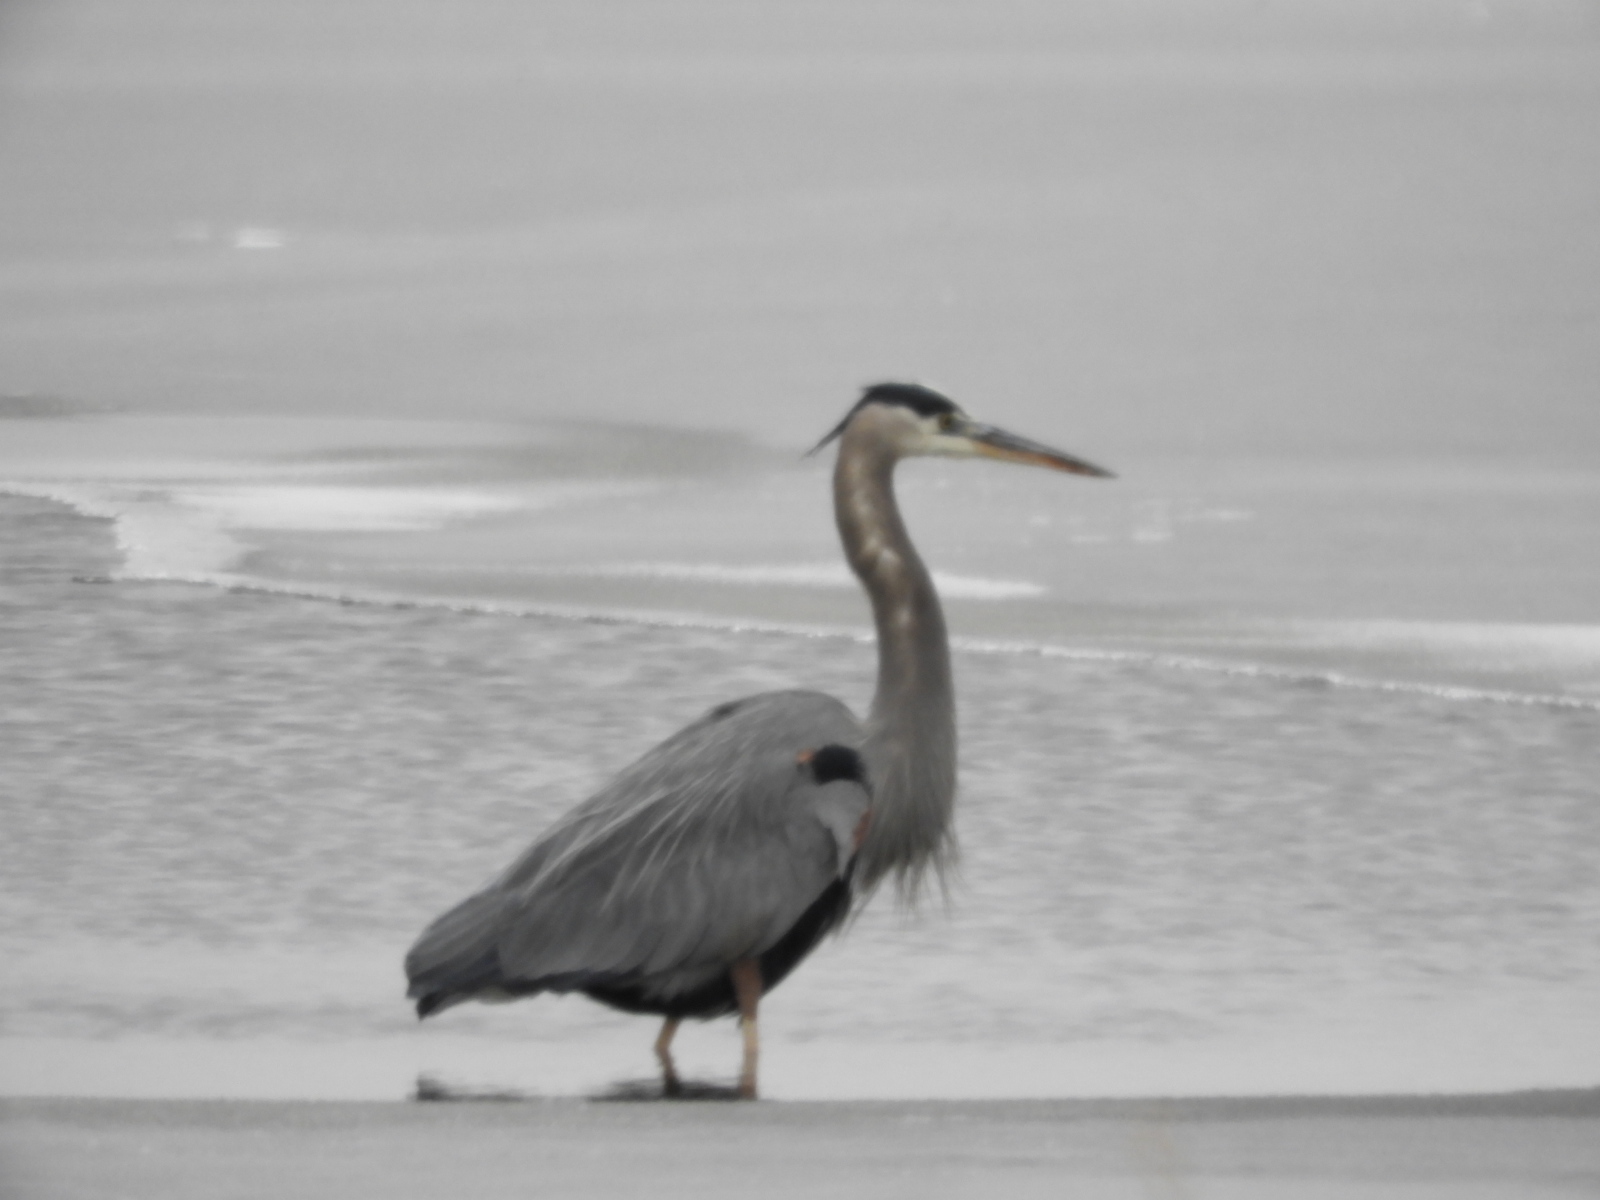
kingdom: Animalia
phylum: Chordata
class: Aves
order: Pelecaniformes
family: Ardeidae
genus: Ardea
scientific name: Ardea herodias
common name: Great blue heron
